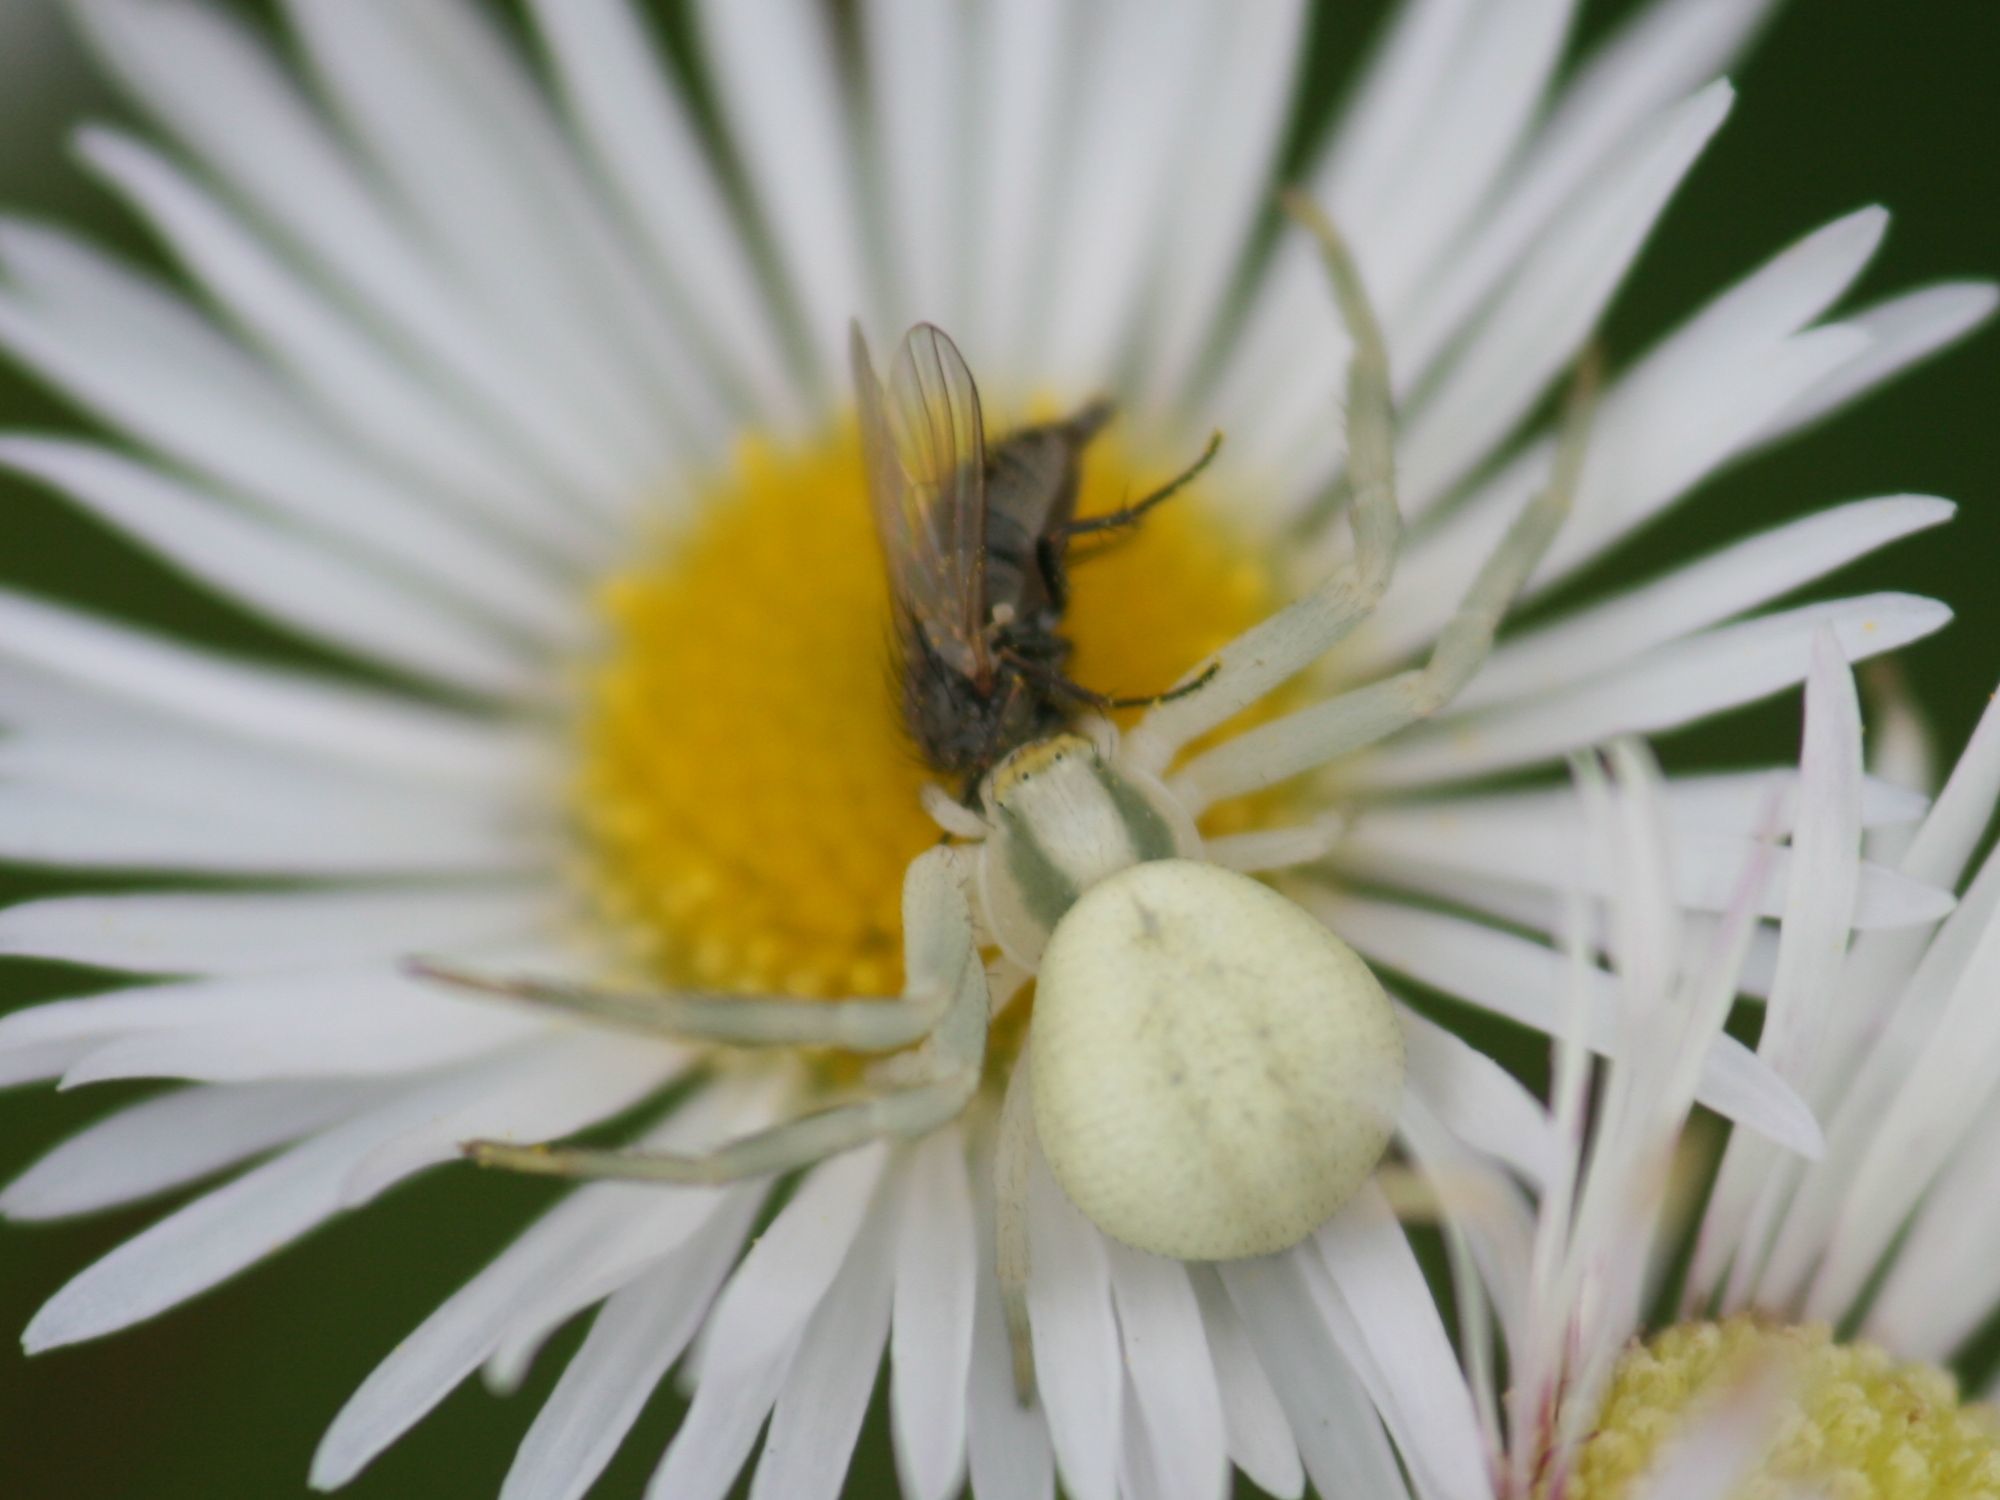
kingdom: Animalia
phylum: Arthropoda
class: Arachnida
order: Araneae
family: Thomisidae
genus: Misumena
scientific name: Misumena vatia
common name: Goldenrod crab spider
